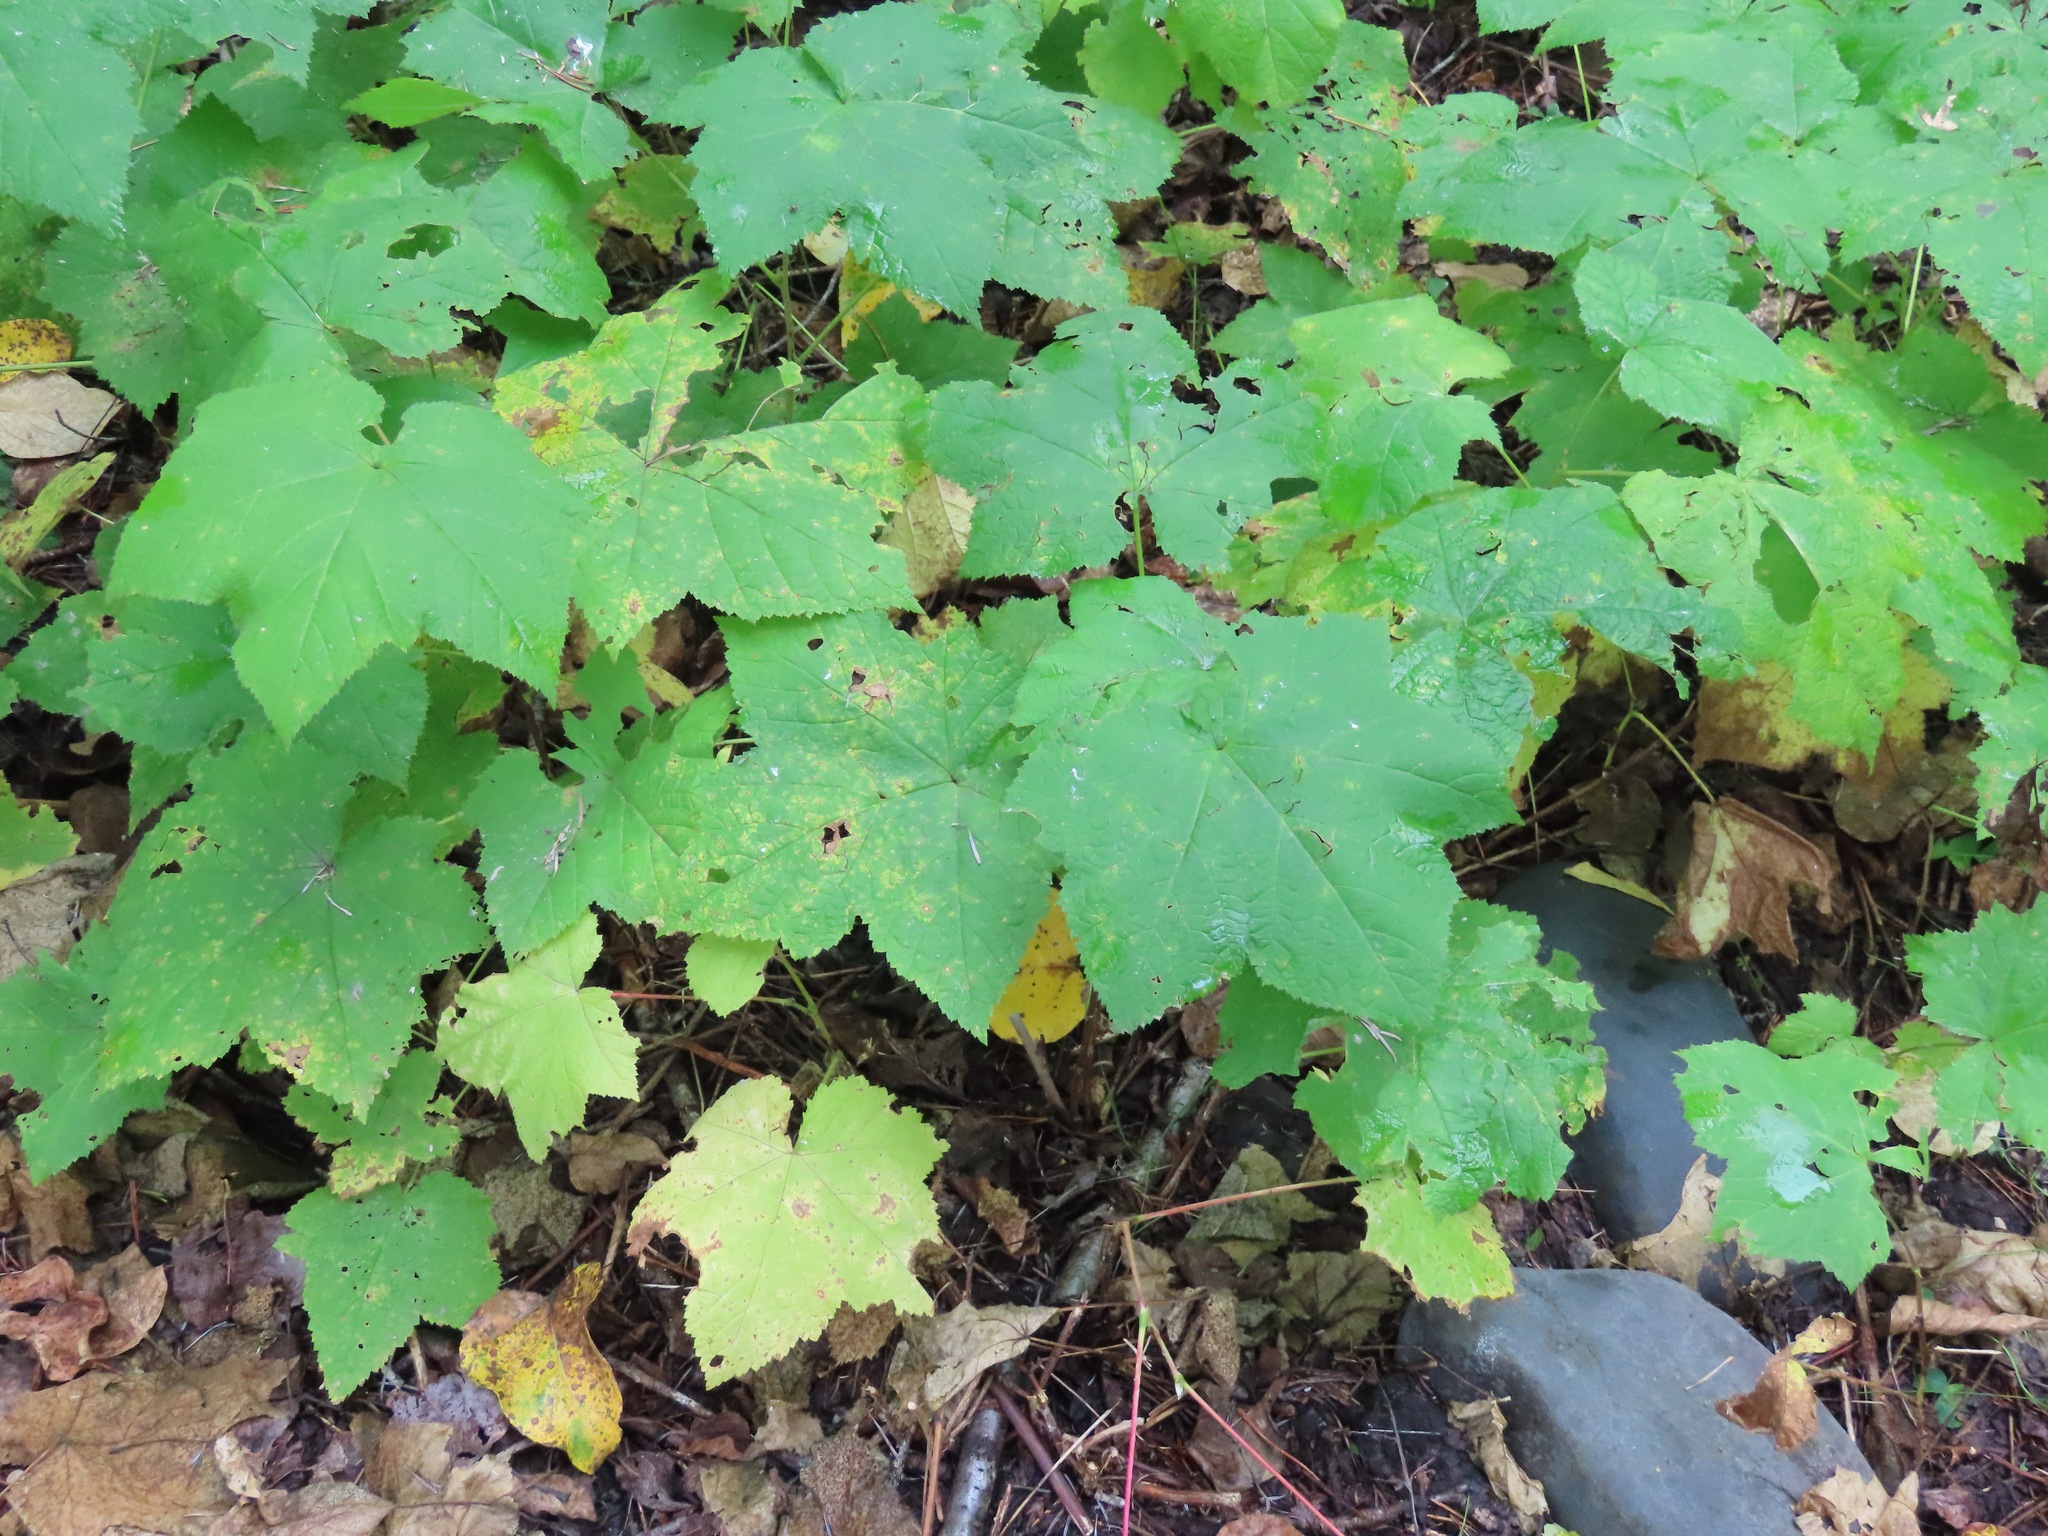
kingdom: Plantae
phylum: Tracheophyta
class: Magnoliopsida
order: Rosales
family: Rosaceae
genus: Rubus
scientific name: Rubus parviflorus
